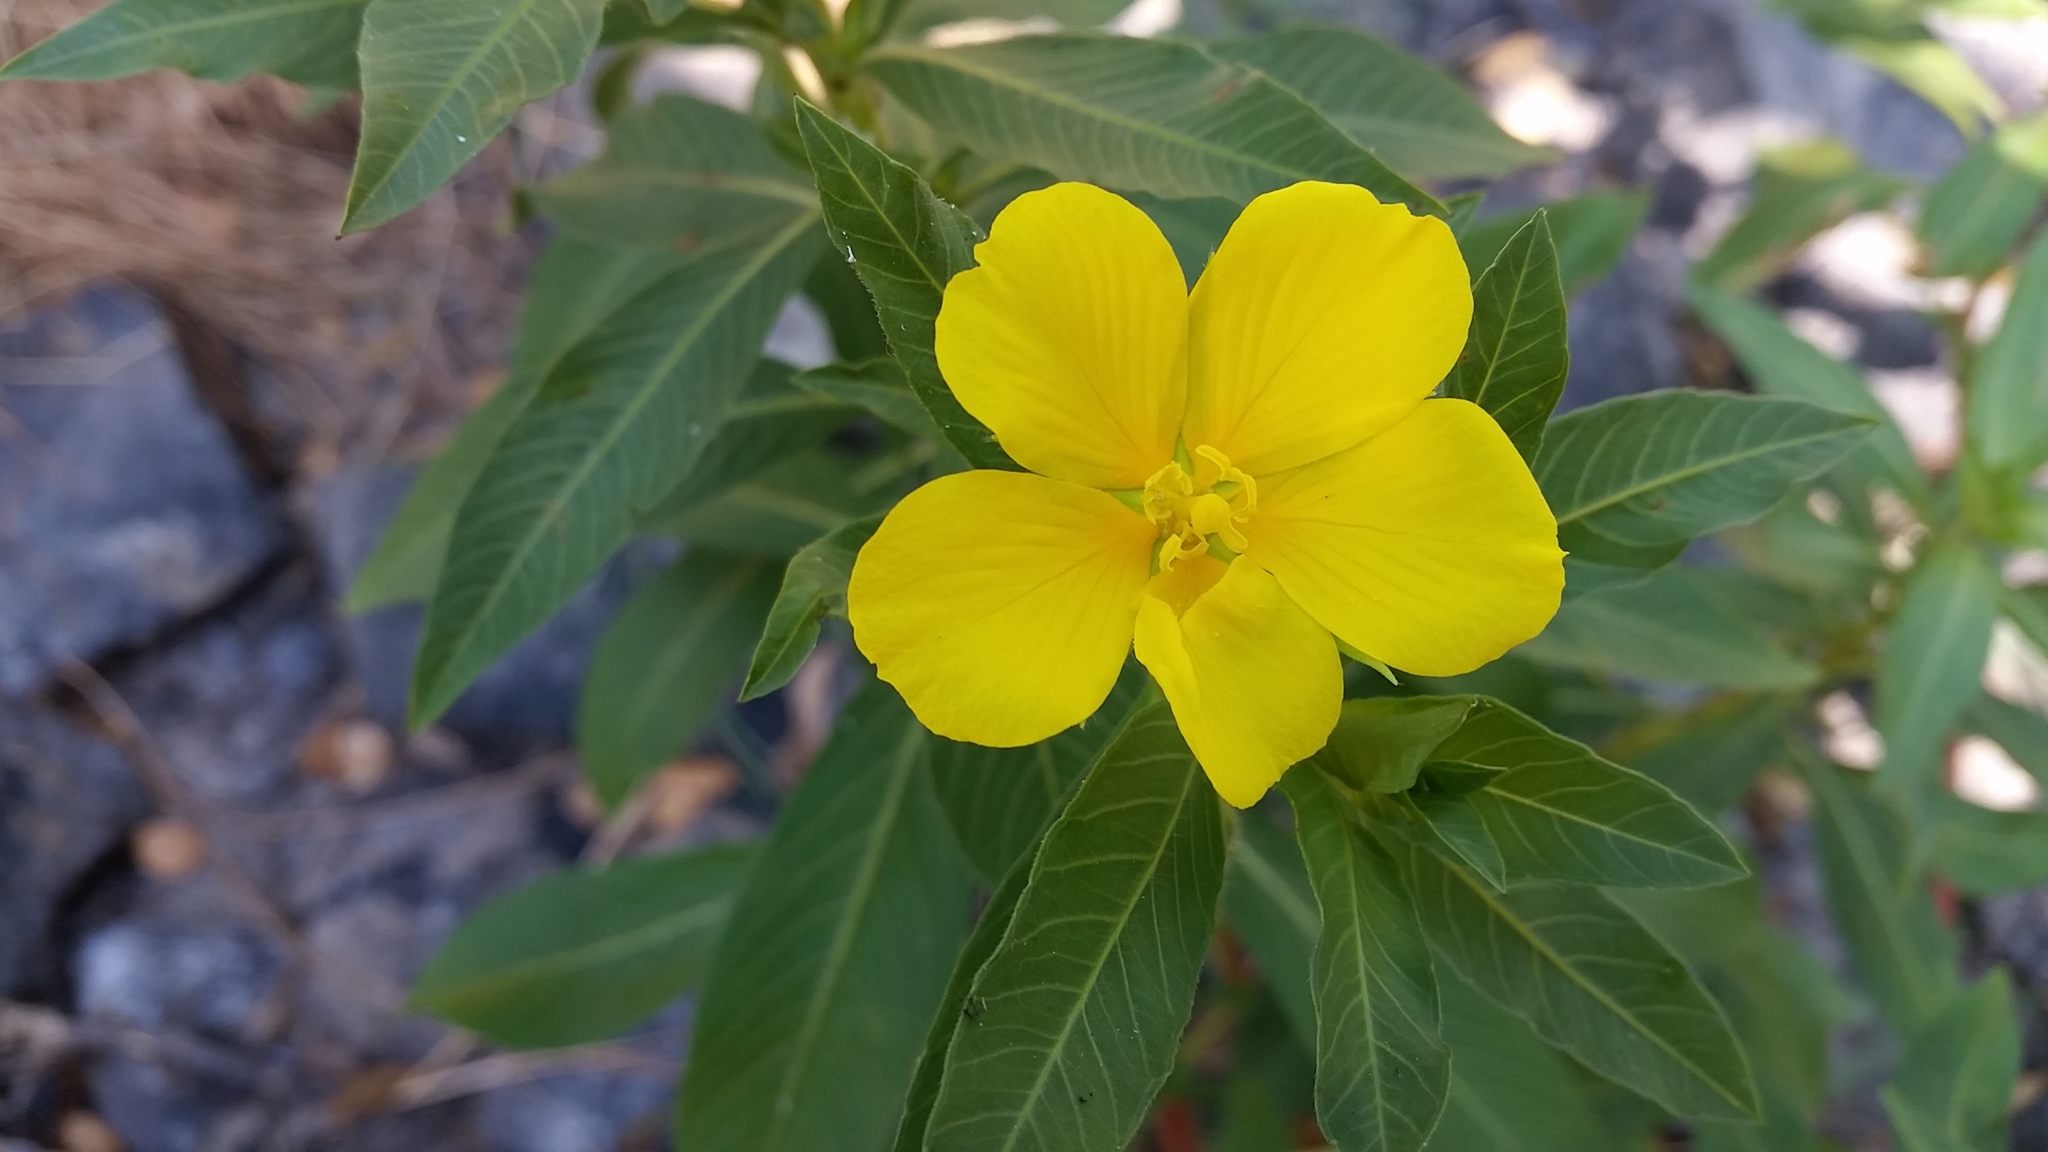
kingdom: Plantae
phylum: Tracheophyta
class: Magnoliopsida
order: Myrtales
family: Onagraceae
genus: Ludwigia
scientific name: Ludwigia hexapetala
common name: Water-primrose
